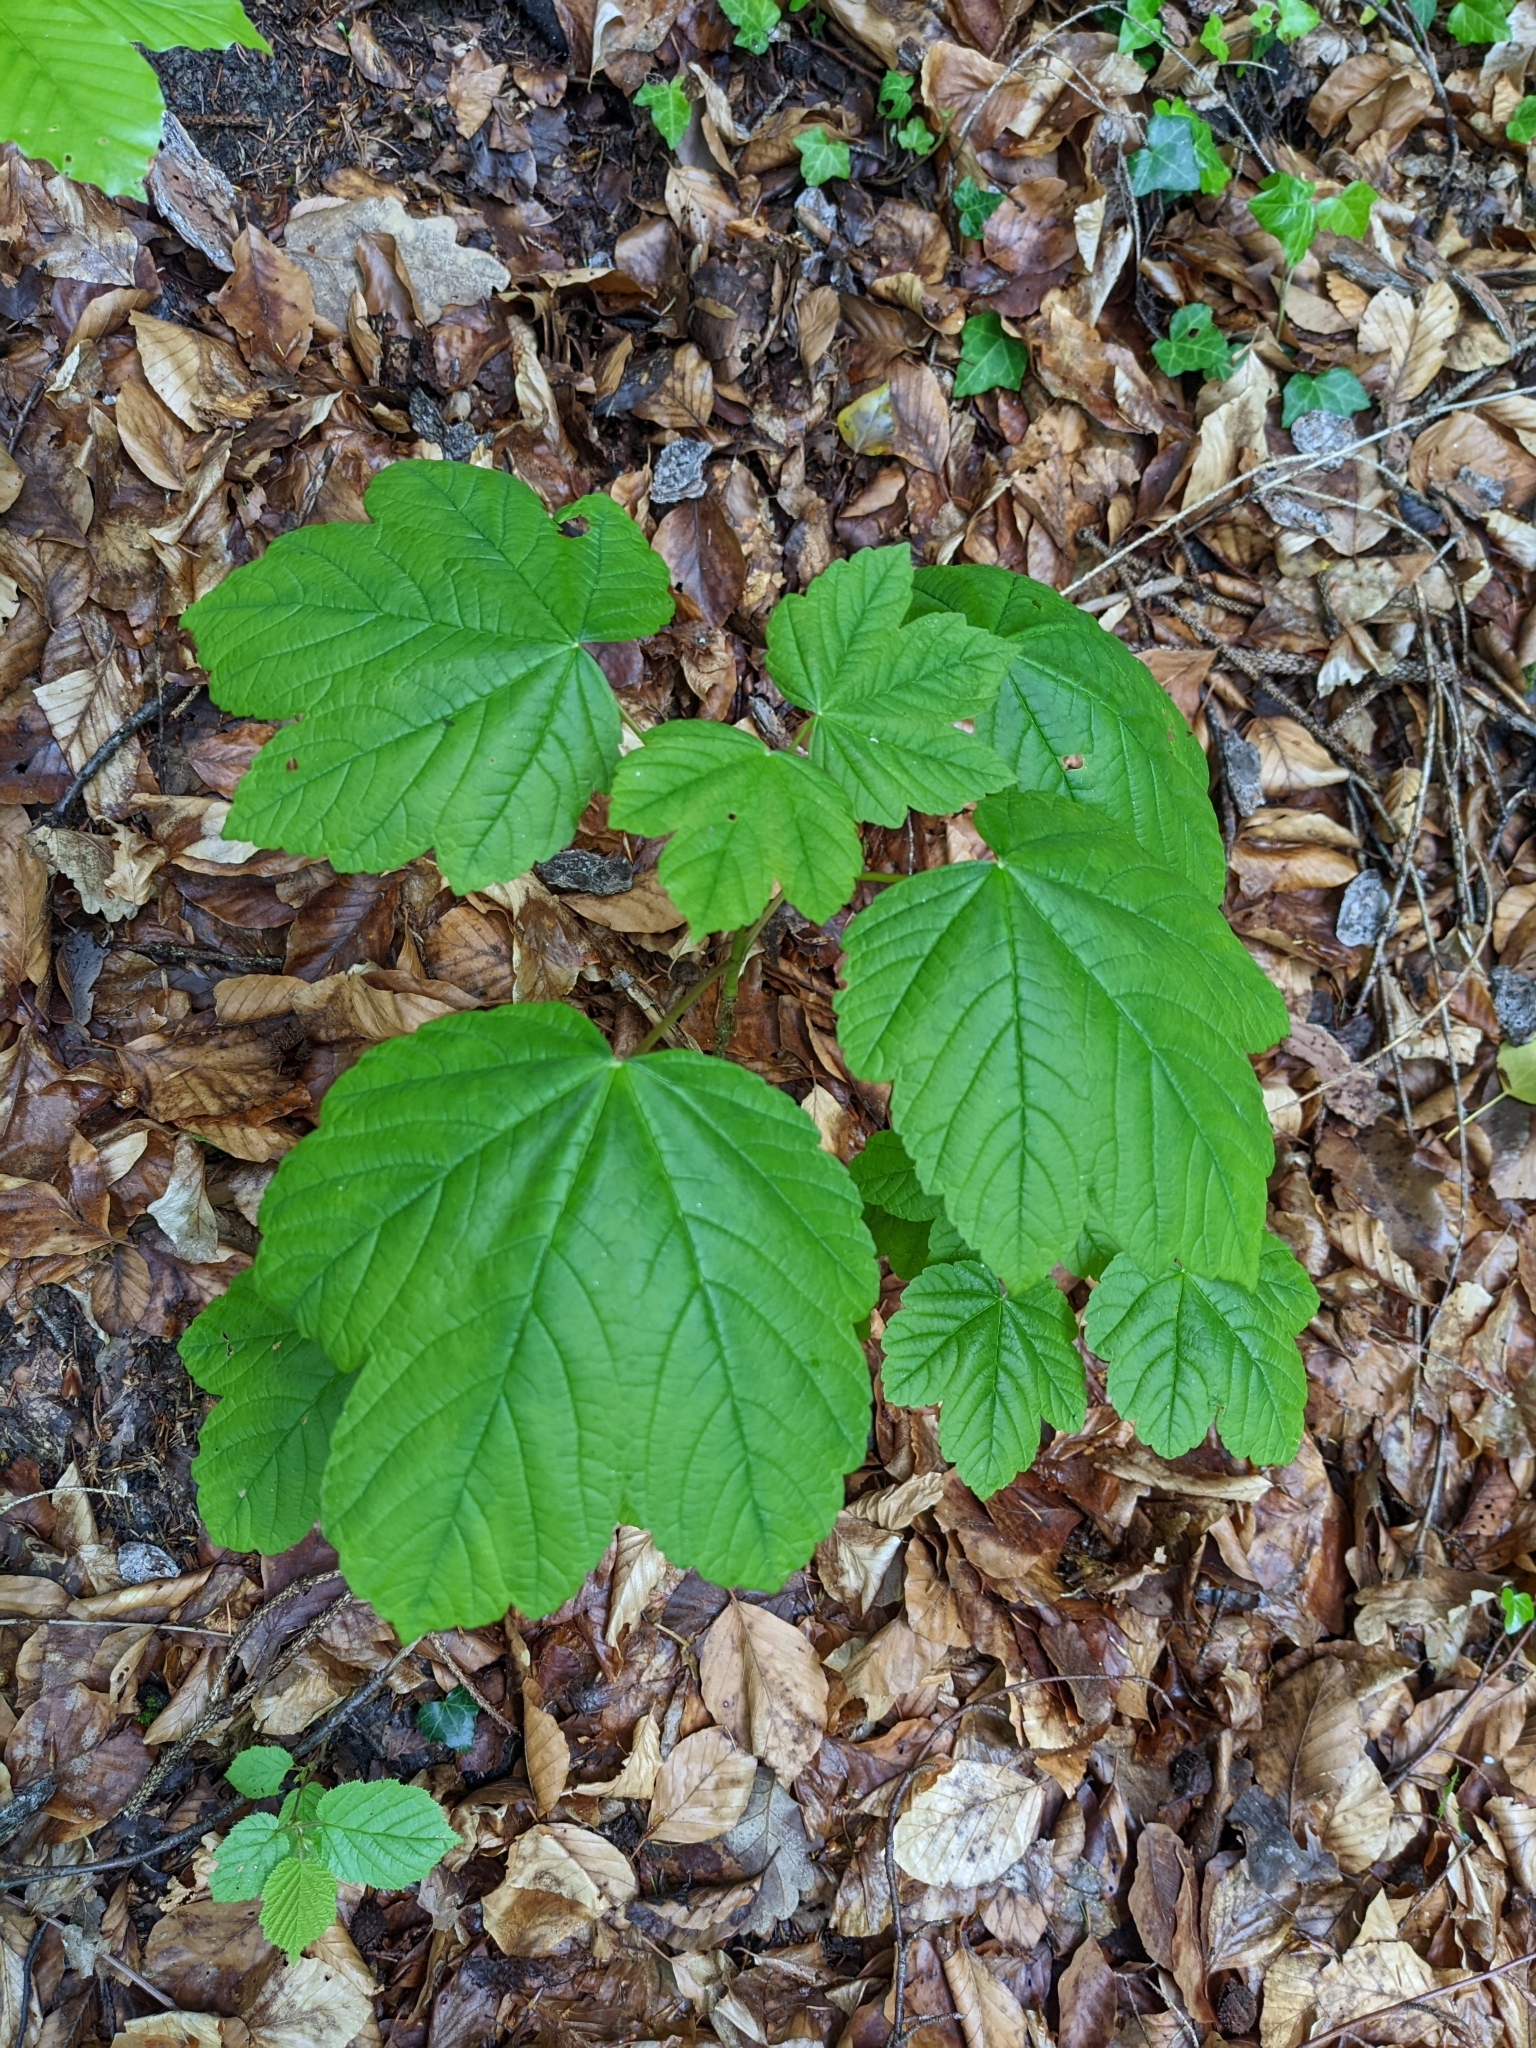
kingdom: Plantae
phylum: Tracheophyta
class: Magnoliopsida
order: Sapindales
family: Sapindaceae
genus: Acer
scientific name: Acer pseudoplatanus
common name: Sycamore
